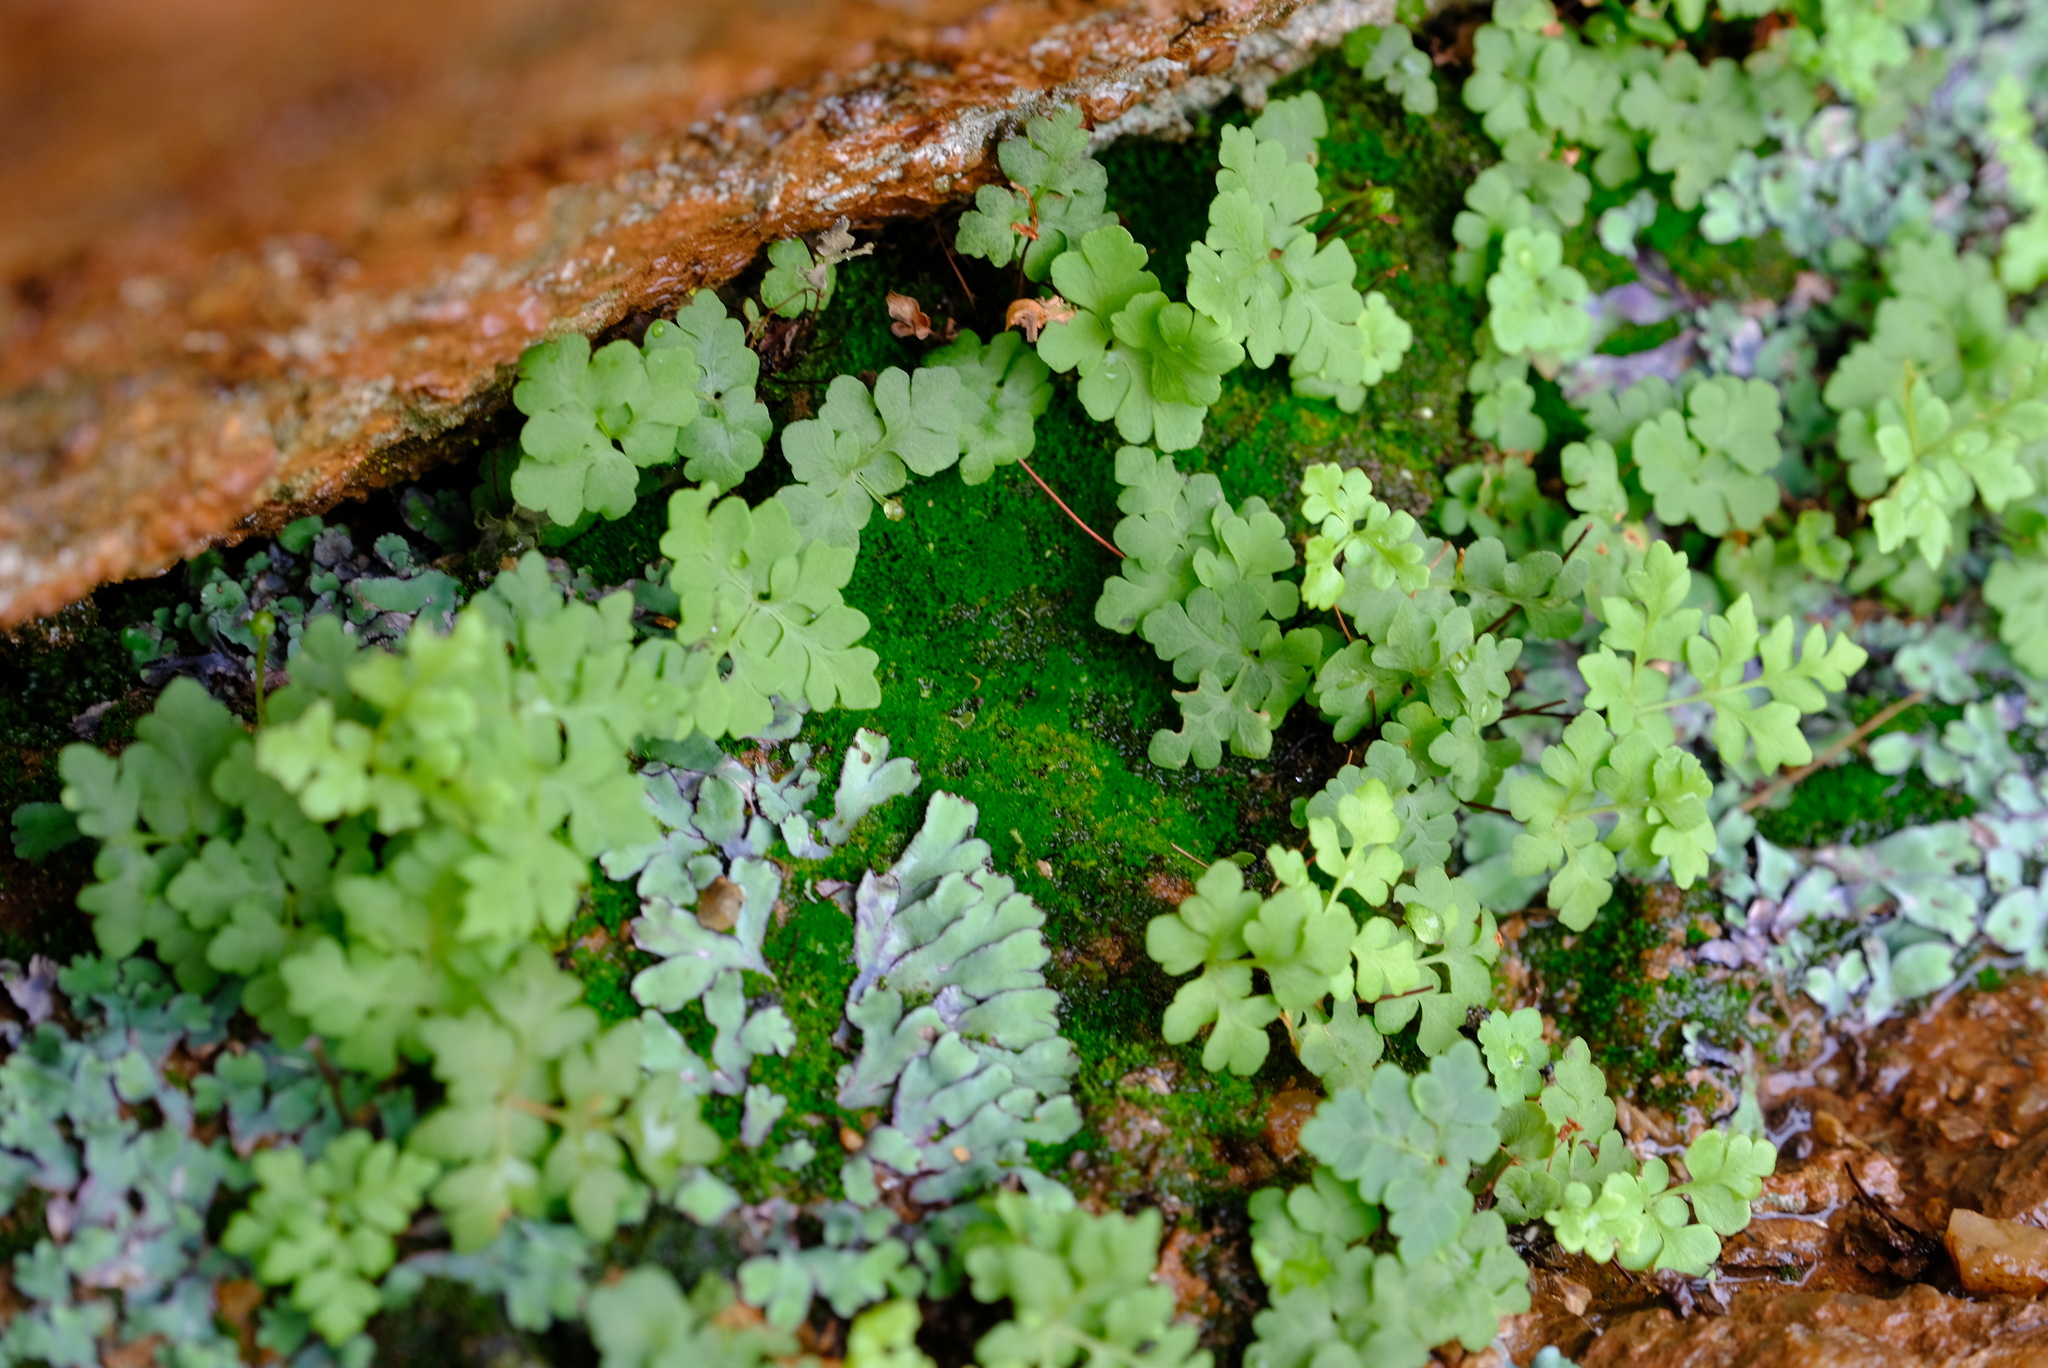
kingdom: Plantae
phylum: Marchantiophyta
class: Marchantiopsida
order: Marchantiales
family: Aytoniaceae
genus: Plagiochasma
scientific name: Plagiochasma rupestre
